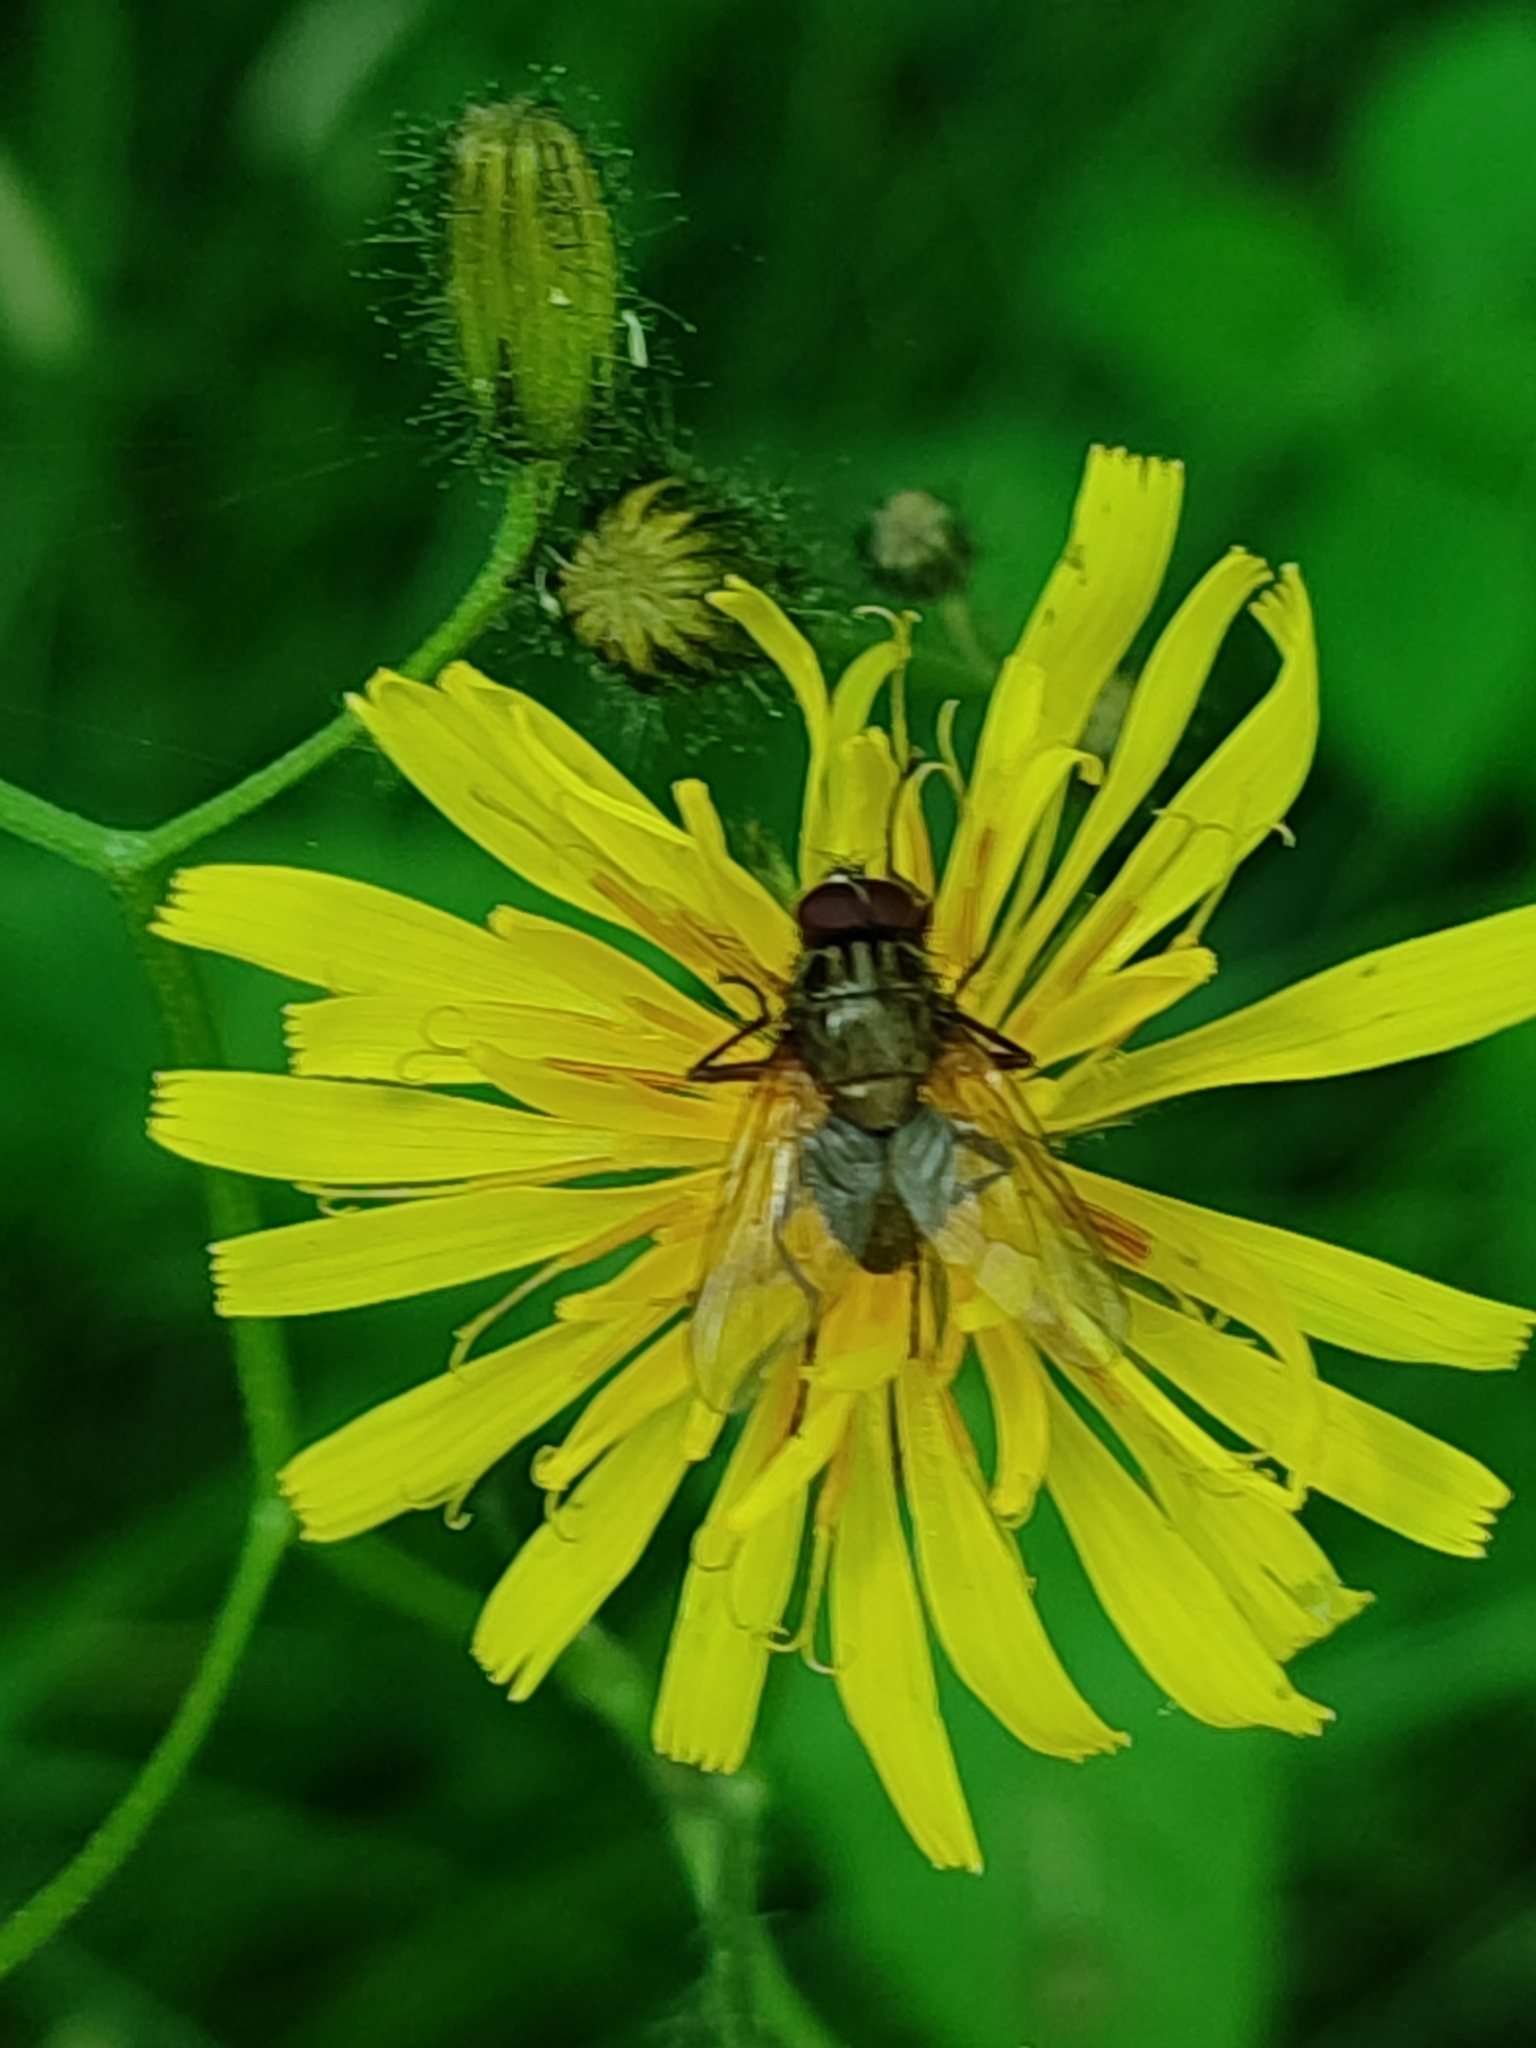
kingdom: Animalia
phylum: Arthropoda
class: Insecta
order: Diptera
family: Muscidae
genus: Phaonia
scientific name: Phaonia angelicae
